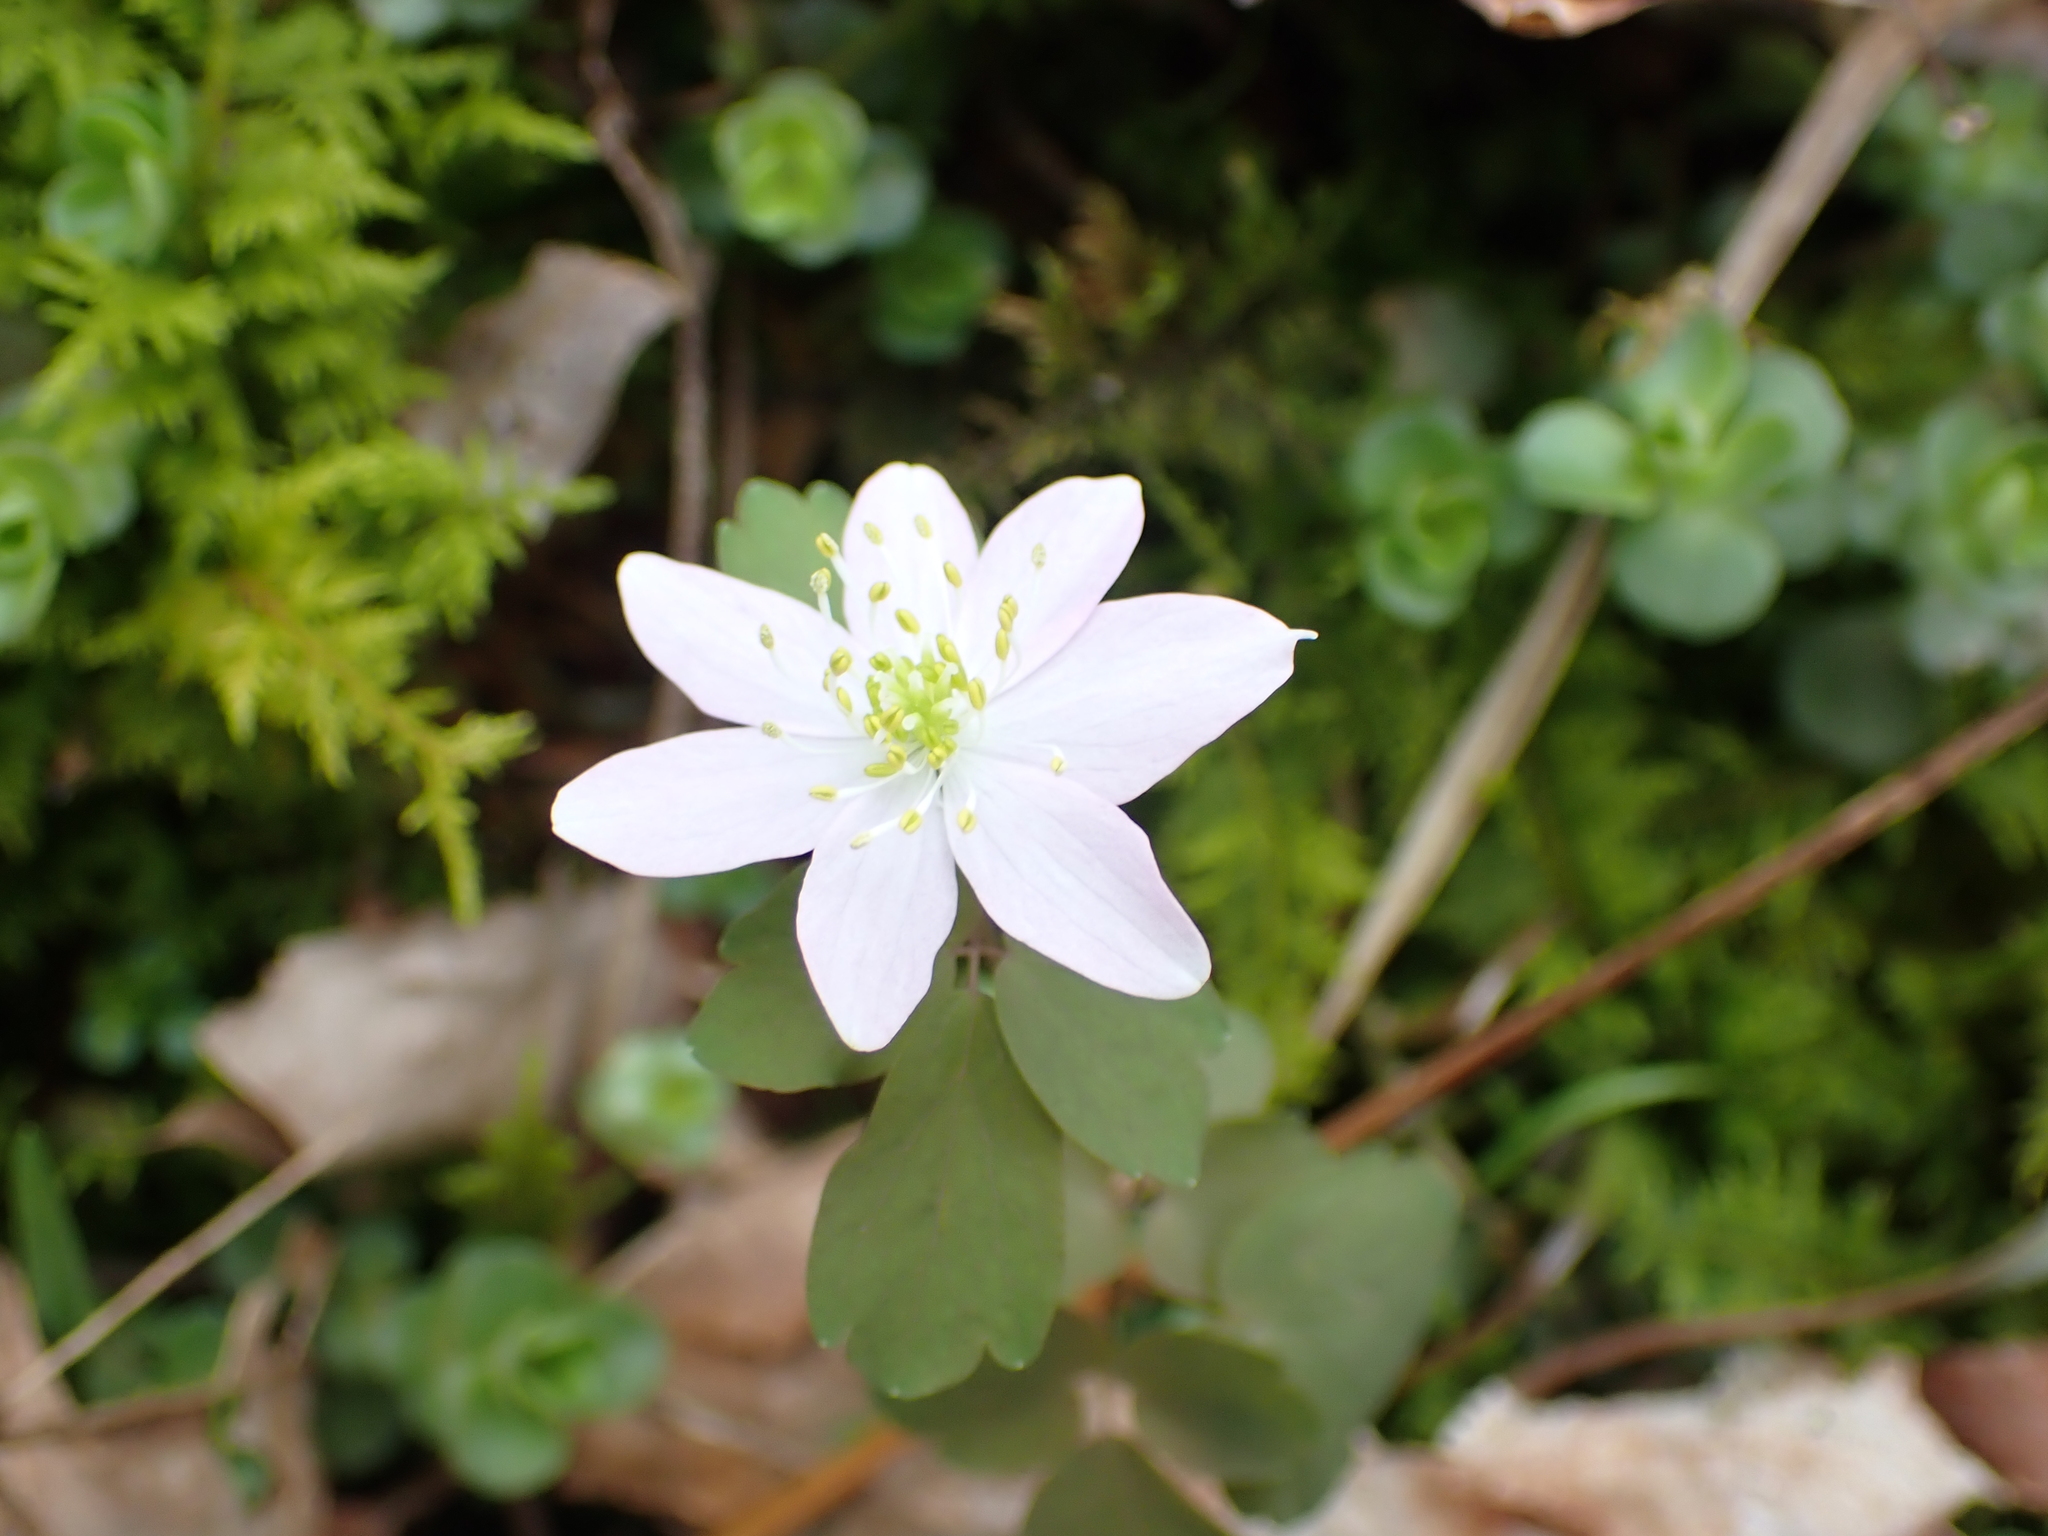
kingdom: Plantae
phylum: Tracheophyta
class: Magnoliopsida
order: Ranunculales
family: Ranunculaceae
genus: Thalictrum
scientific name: Thalictrum thalictroides
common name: Rue-anemone
